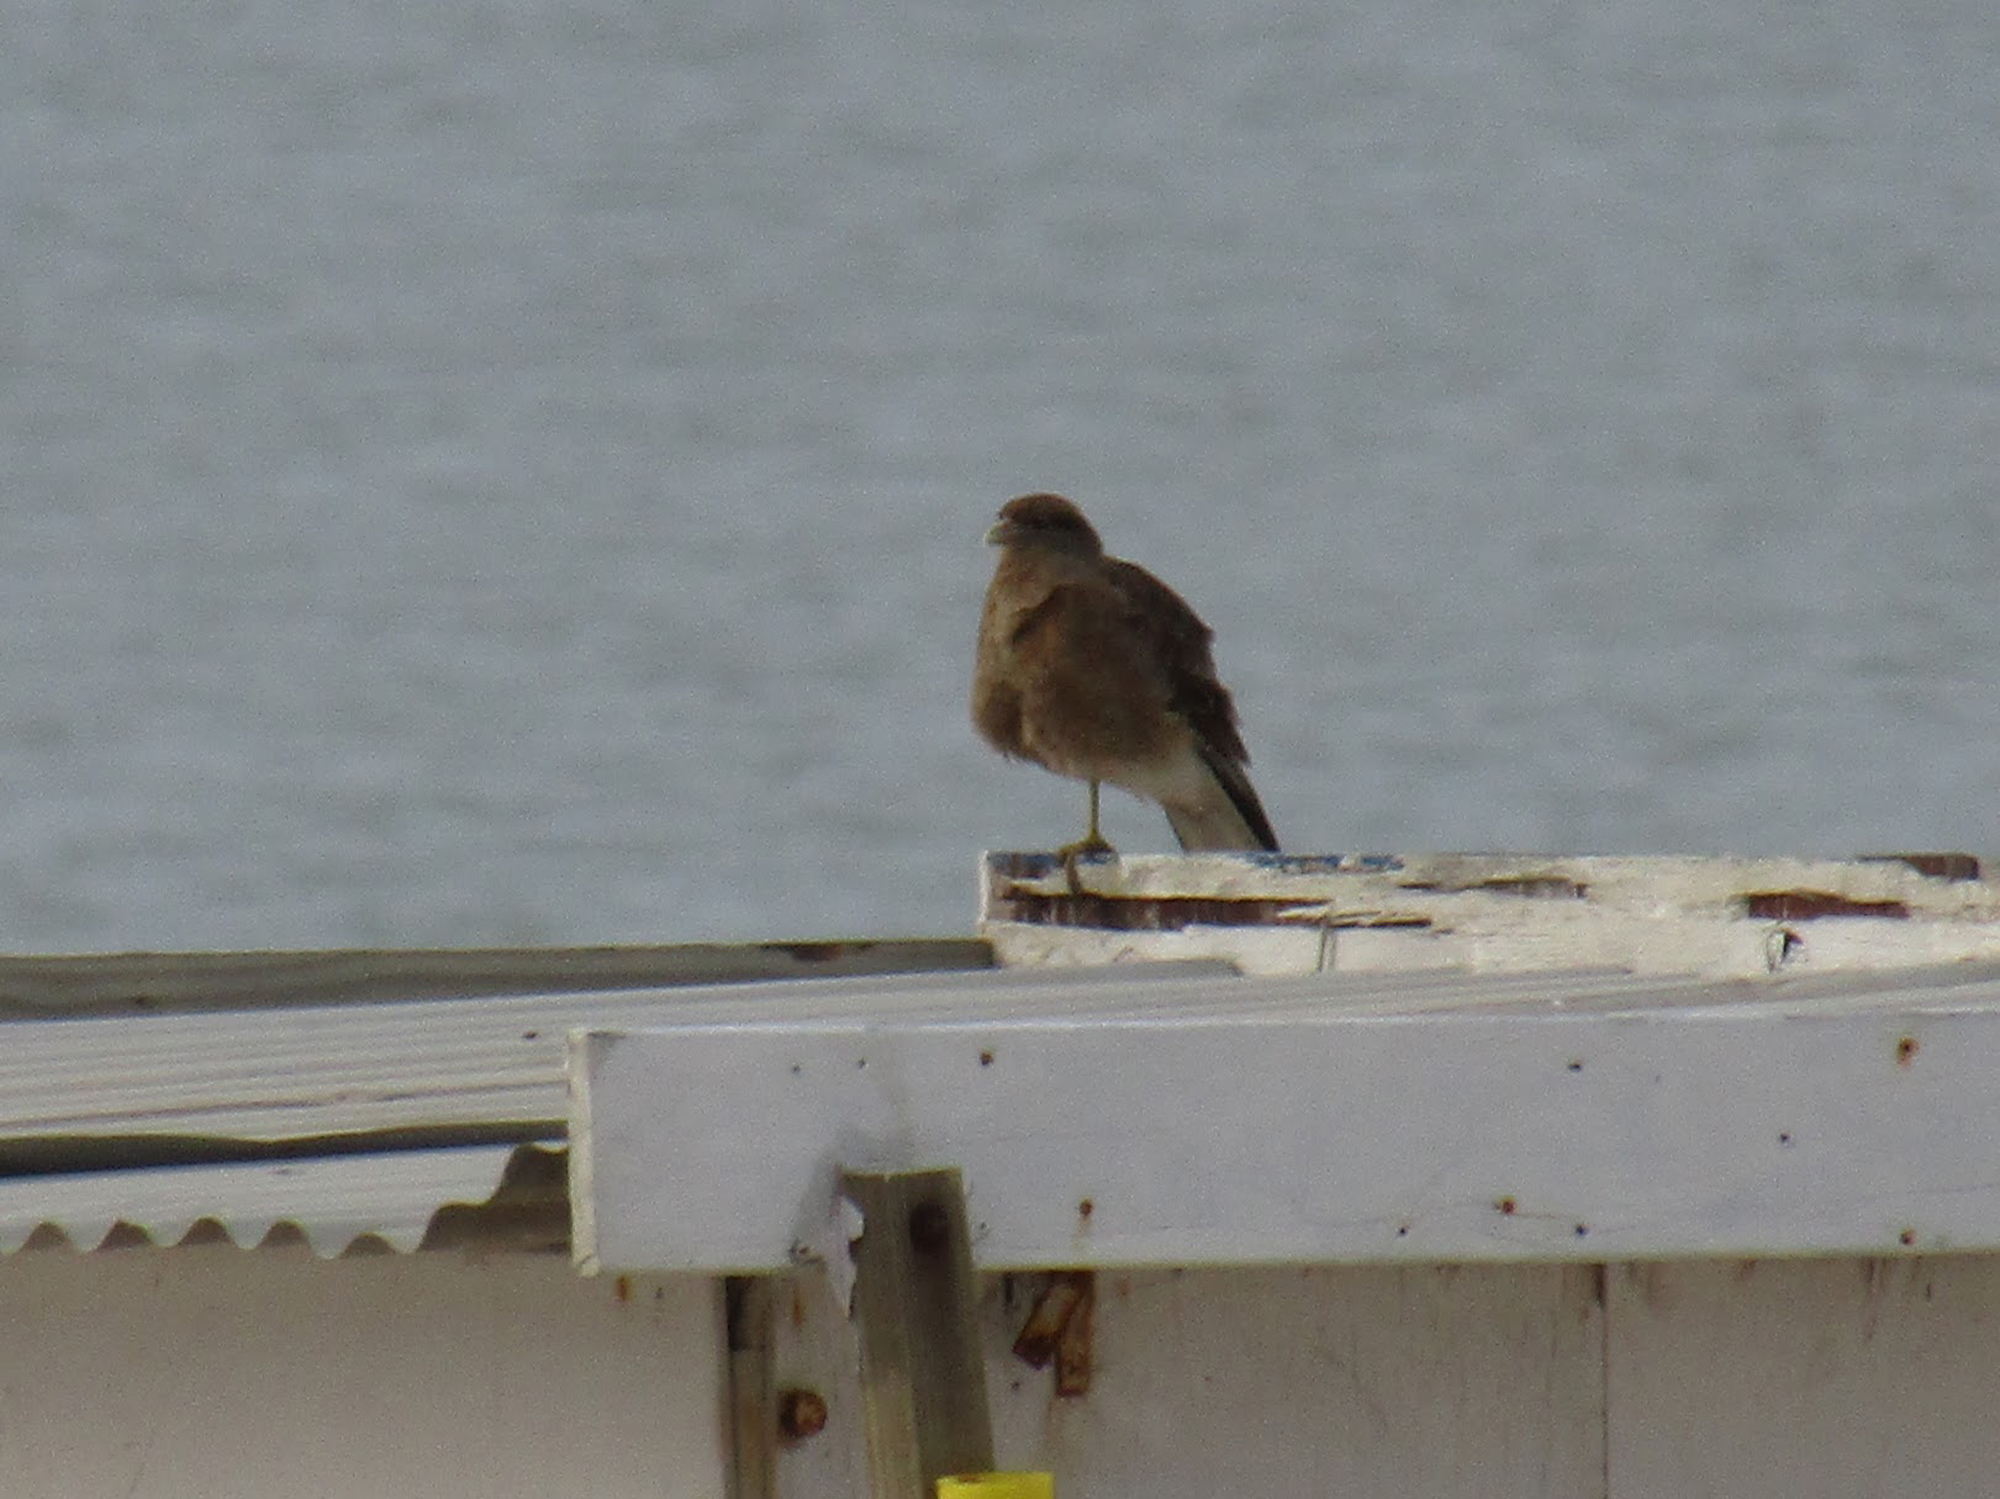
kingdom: Animalia
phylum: Chordata
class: Aves
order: Falconiformes
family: Falconidae
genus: Daptrius
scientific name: Daptrius
